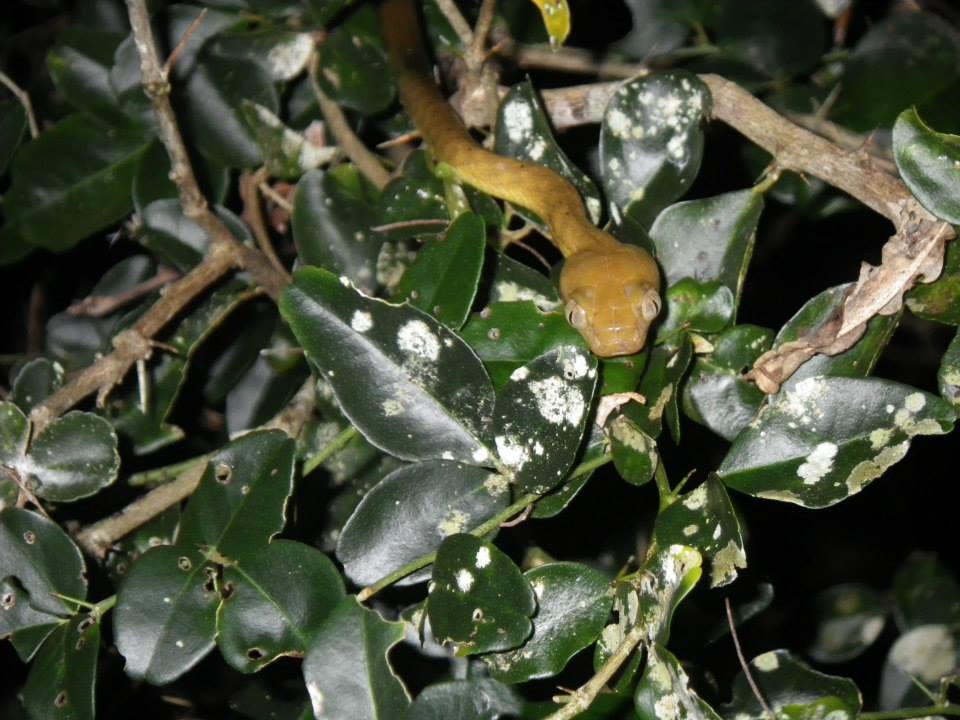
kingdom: Animalia
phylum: Chordata
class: Squamata
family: Colubridae
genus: Boiga
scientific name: Boiga irregularis
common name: Brown tree snake
